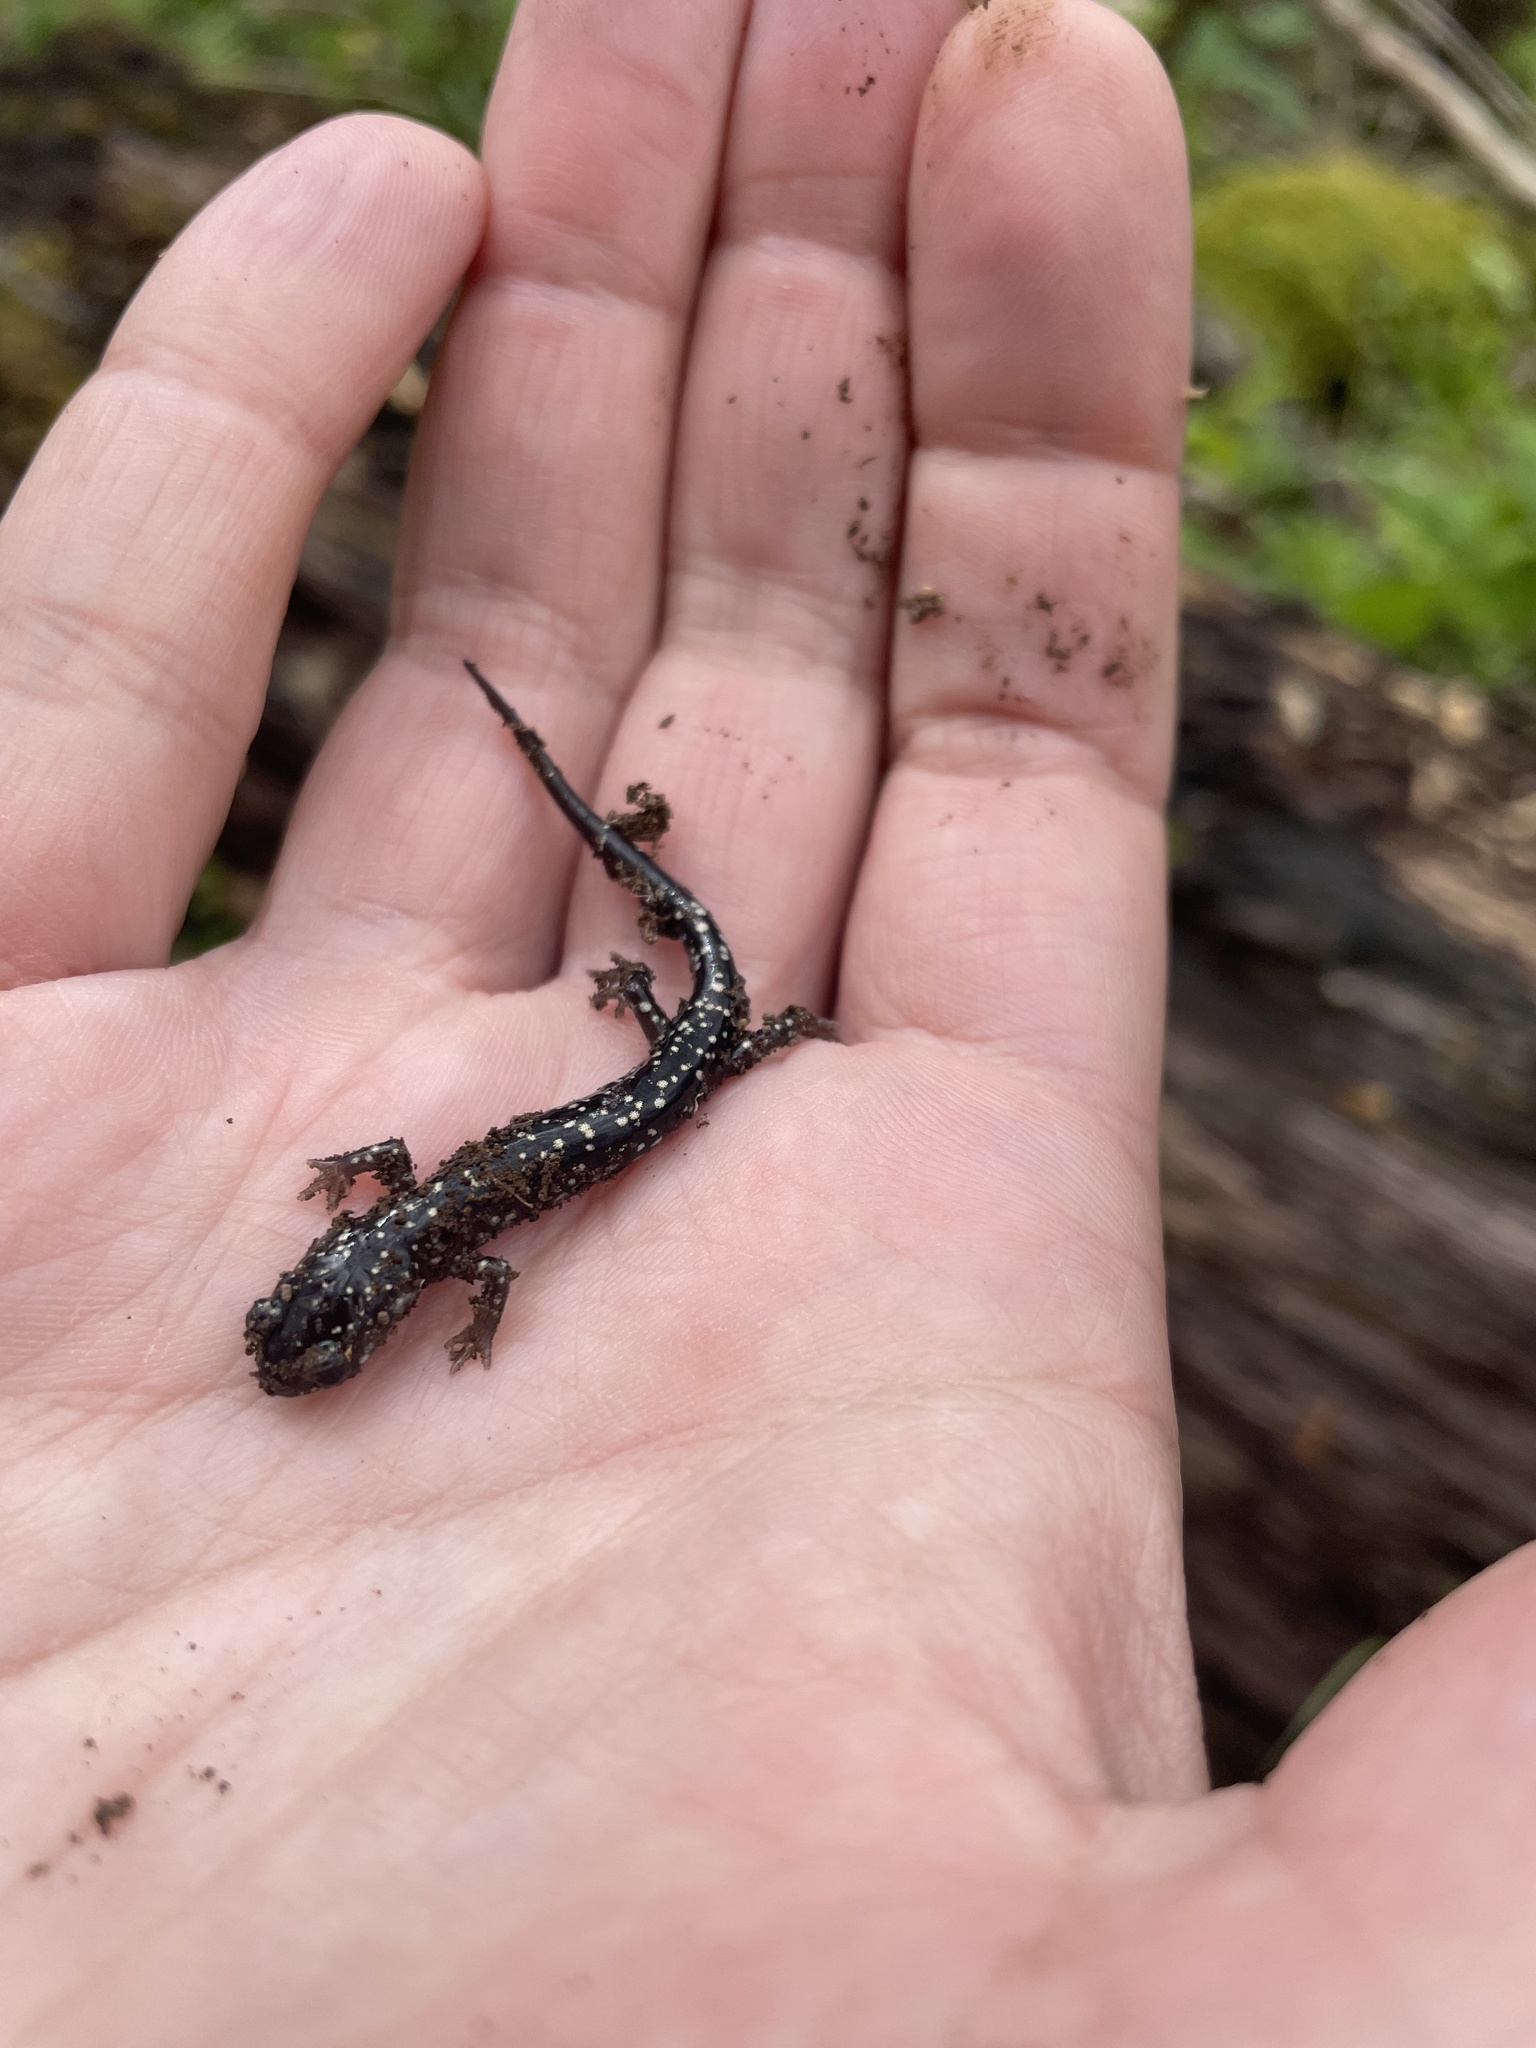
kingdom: Animalia
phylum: Chordata
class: Amphibia
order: Caudata
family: Plethodontidae
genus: Plethodon
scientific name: Plethodon glutinosus
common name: Northern slimy salamander
